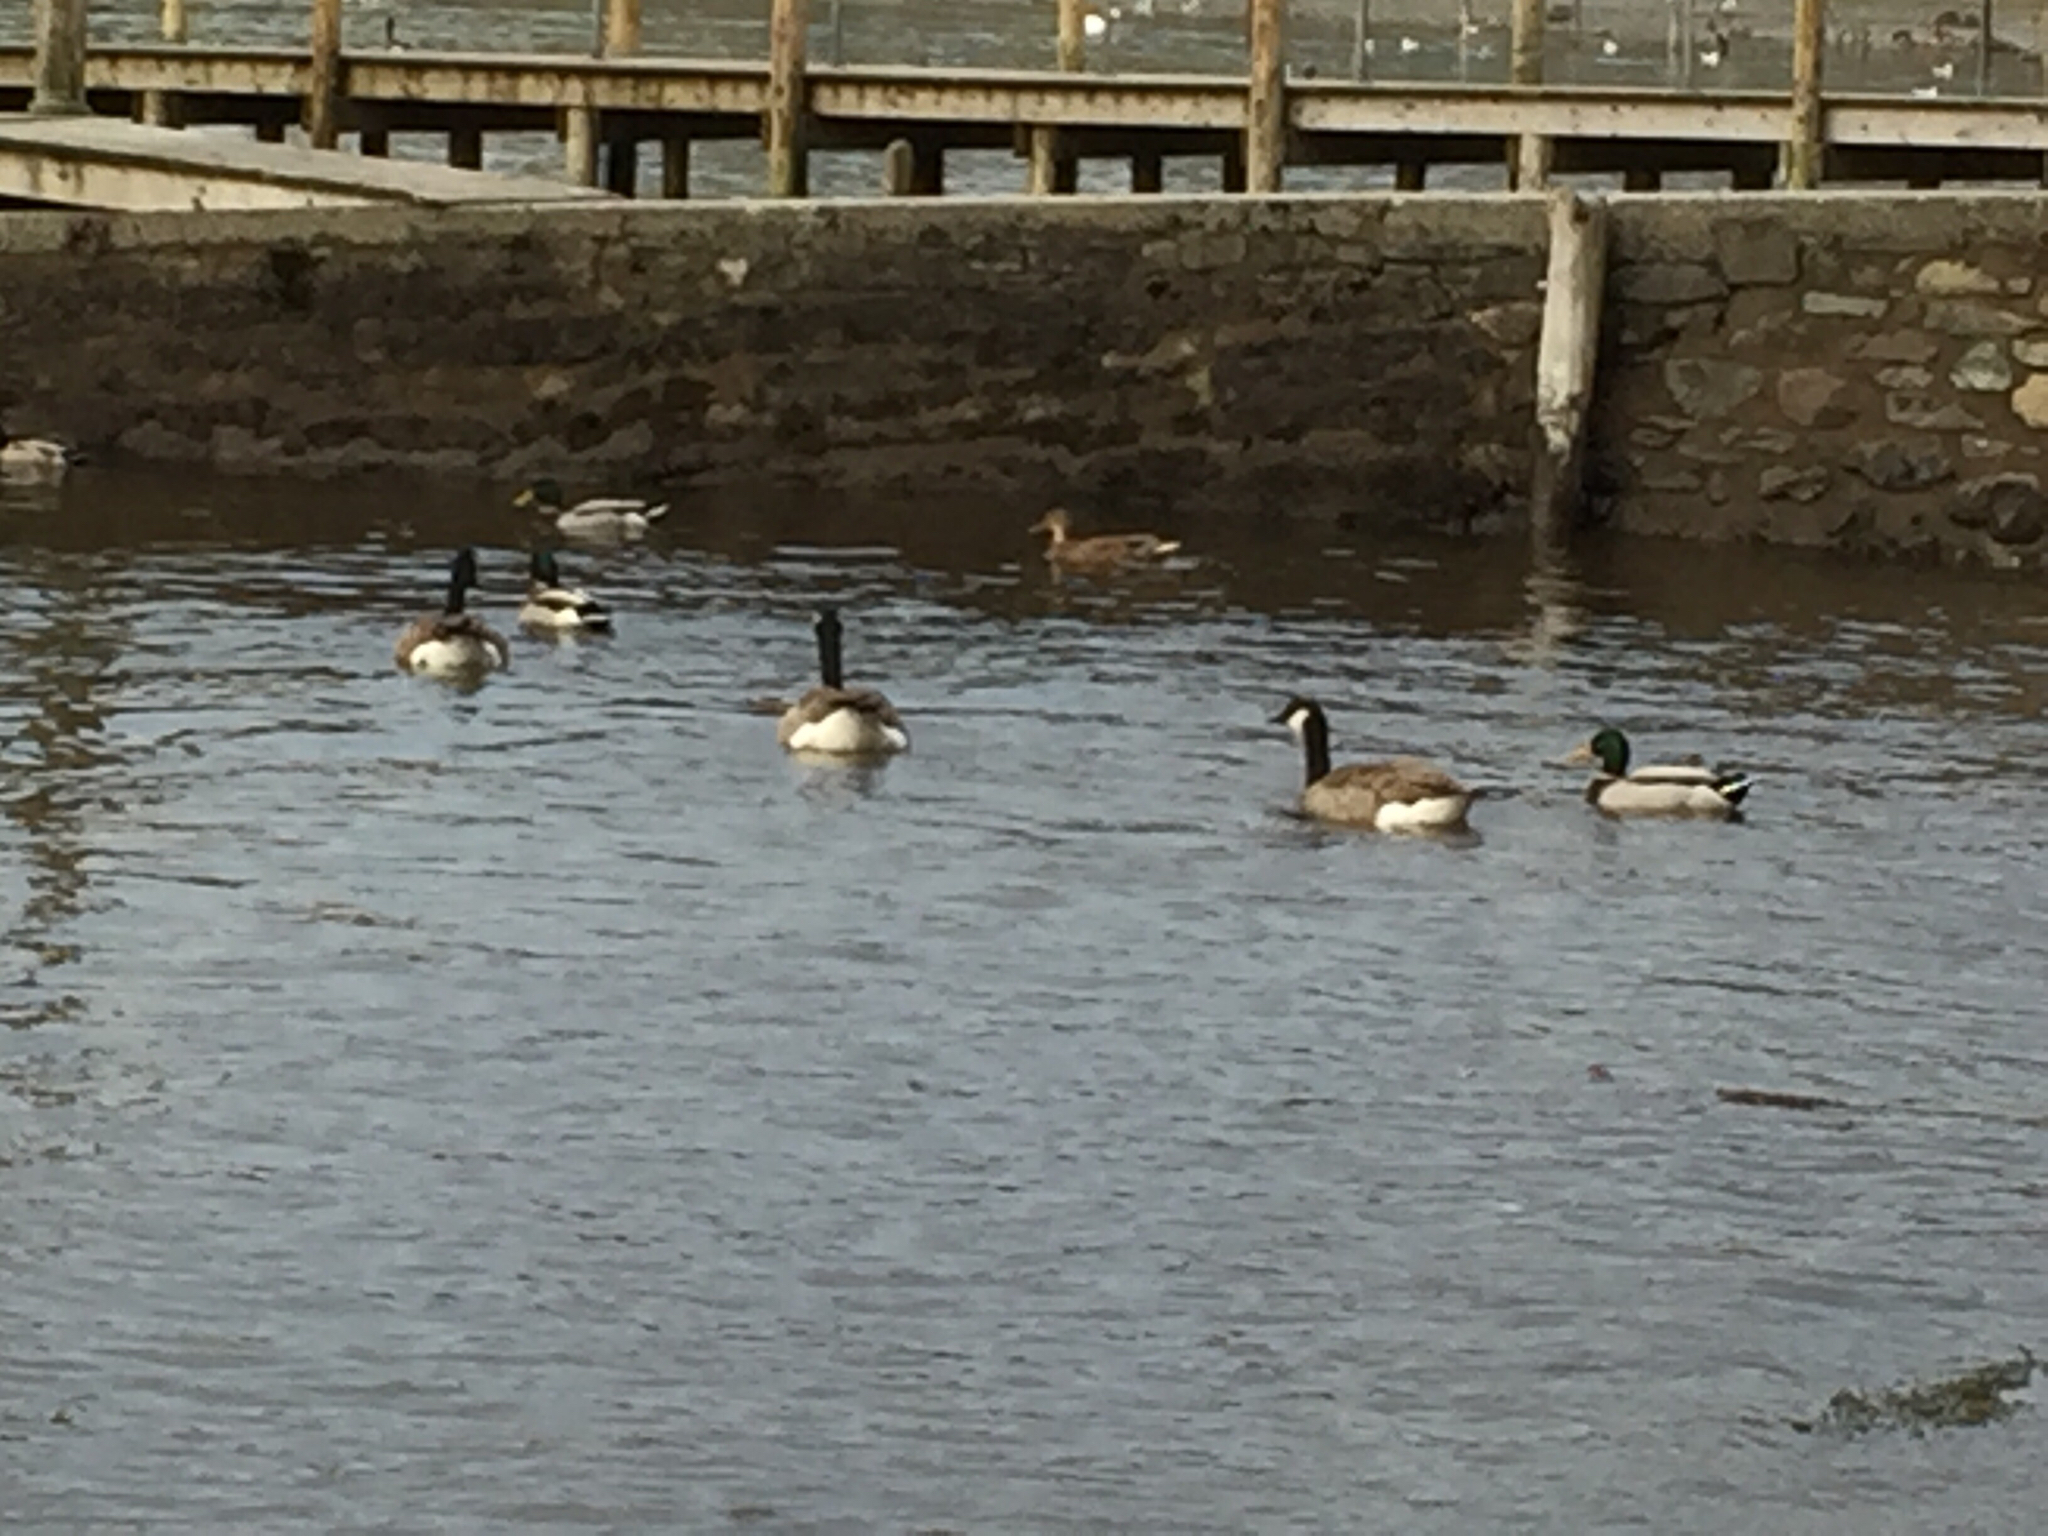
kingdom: Animalia
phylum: Chordata
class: Aves
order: Anseriformes
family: Anatidae
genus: Branta
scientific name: Branta canadensis
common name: Canada goose
